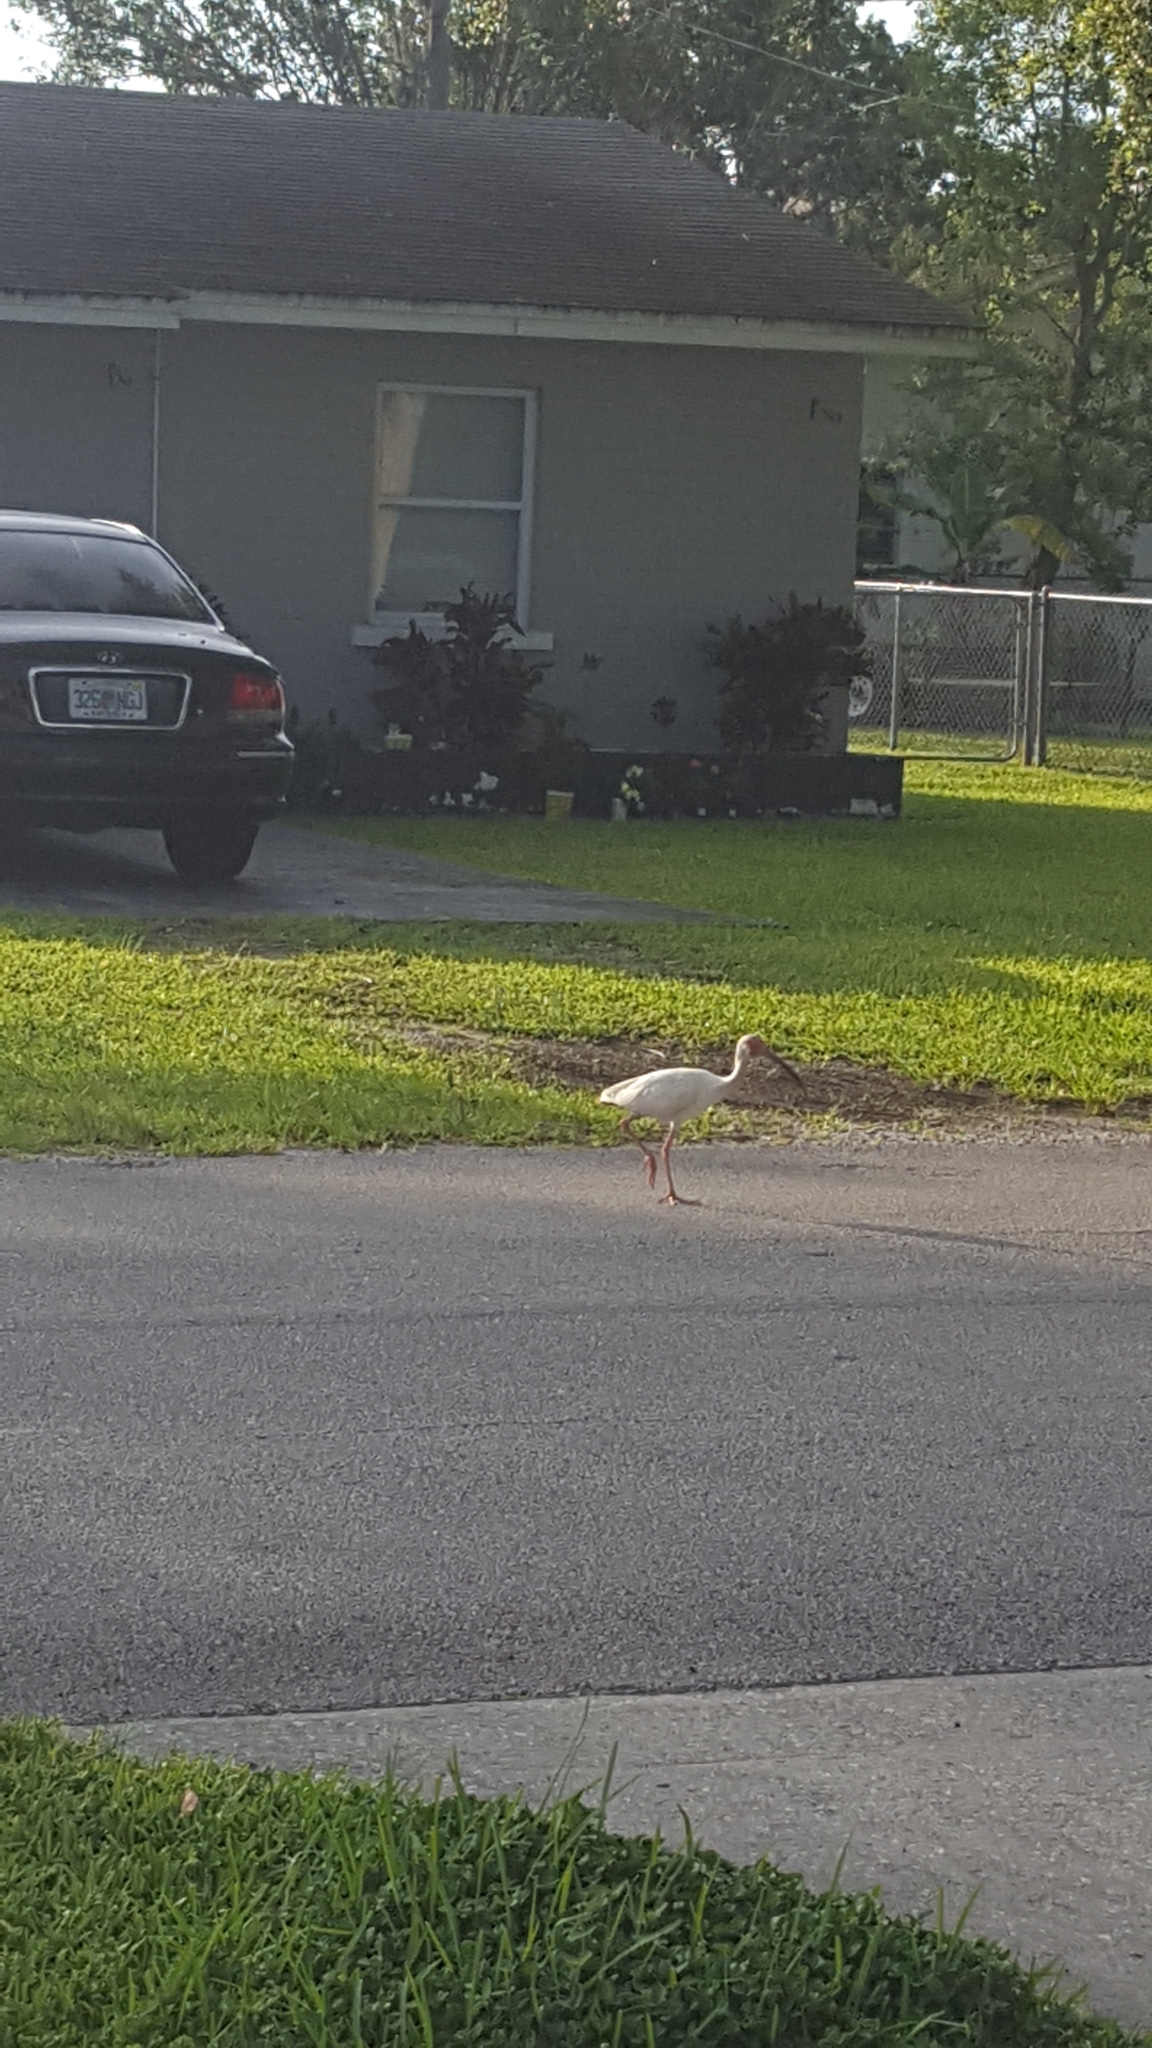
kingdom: Animalia
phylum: Chordata
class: Aves
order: Pelecaniformes
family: Threskiornithidae
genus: Eudocimus
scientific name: Eudocimus albus
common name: White ibis
